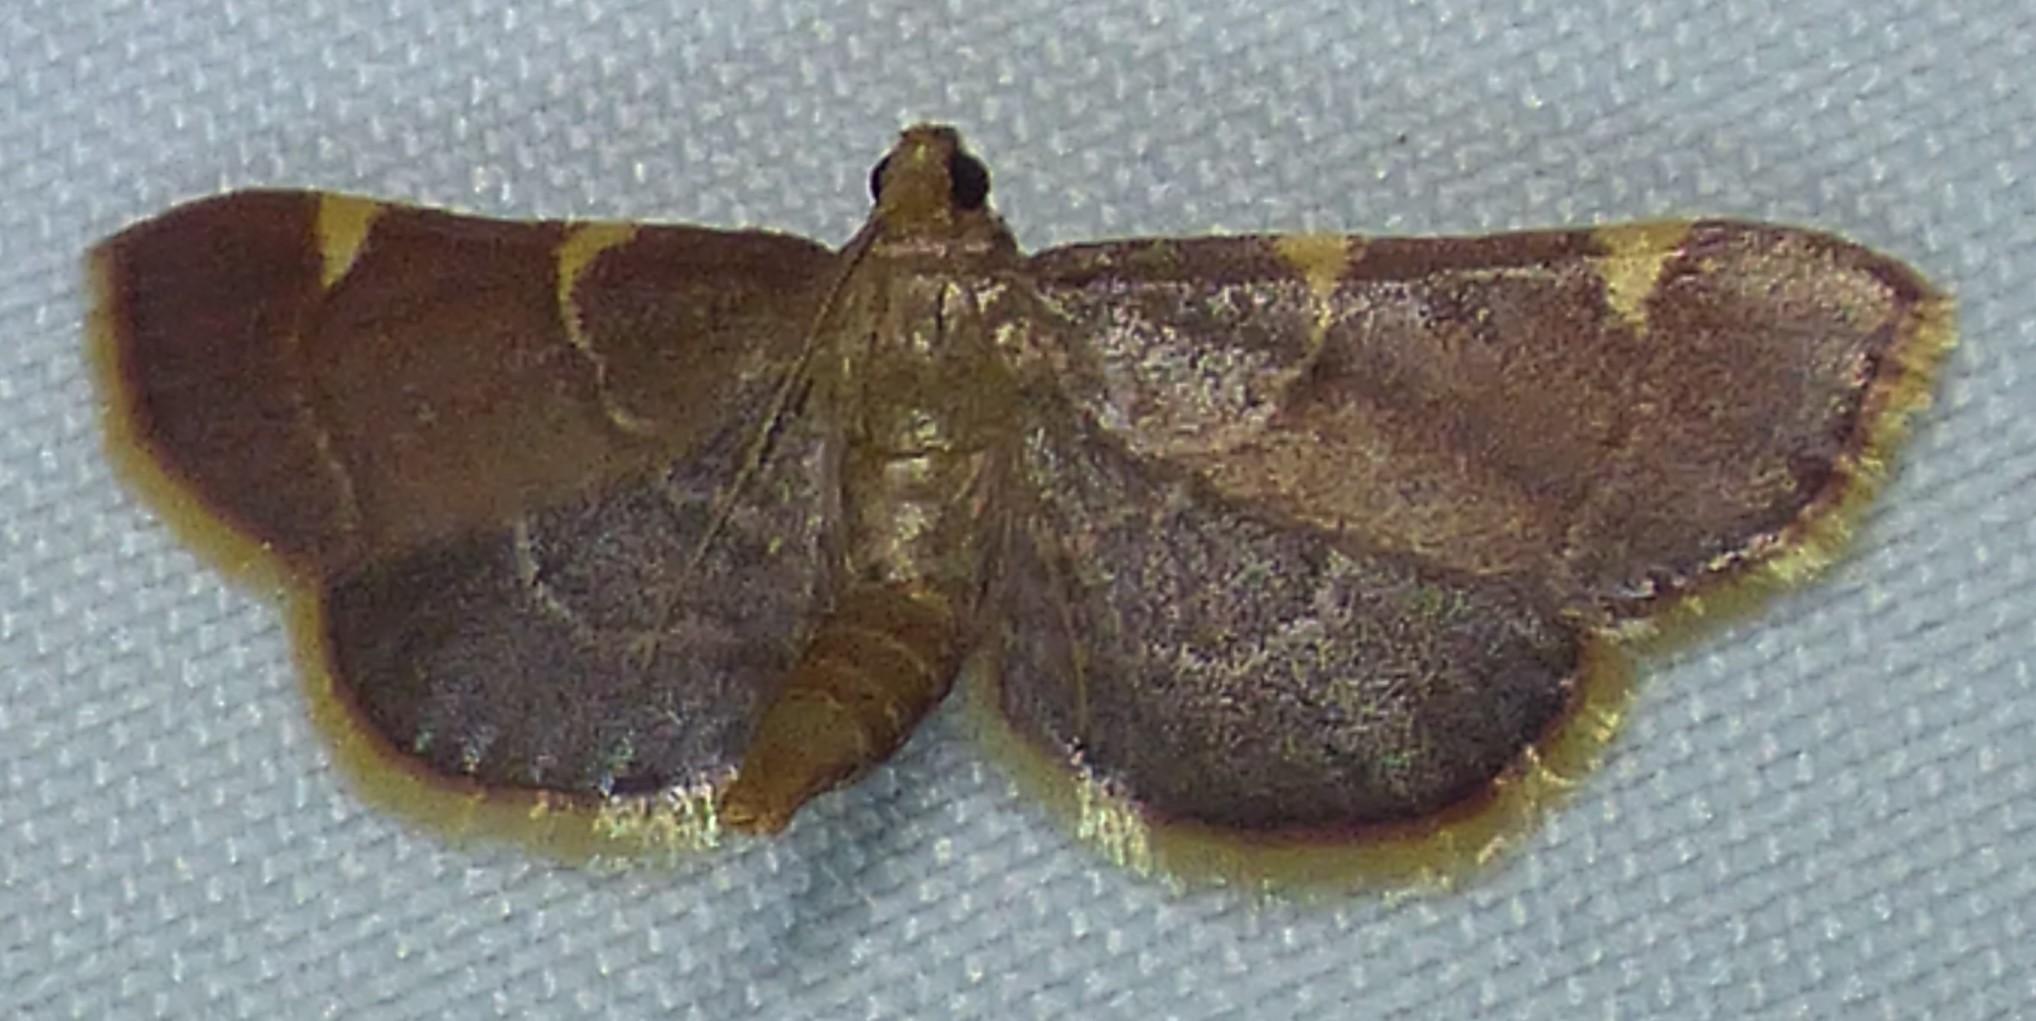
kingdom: Animalia
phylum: Arthropoda
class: Insecta
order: Lepidoptera
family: Pyralidae
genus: Hypsopygia
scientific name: Hypsopygia olinalis
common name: Yellow-fringed dolichomia moth
